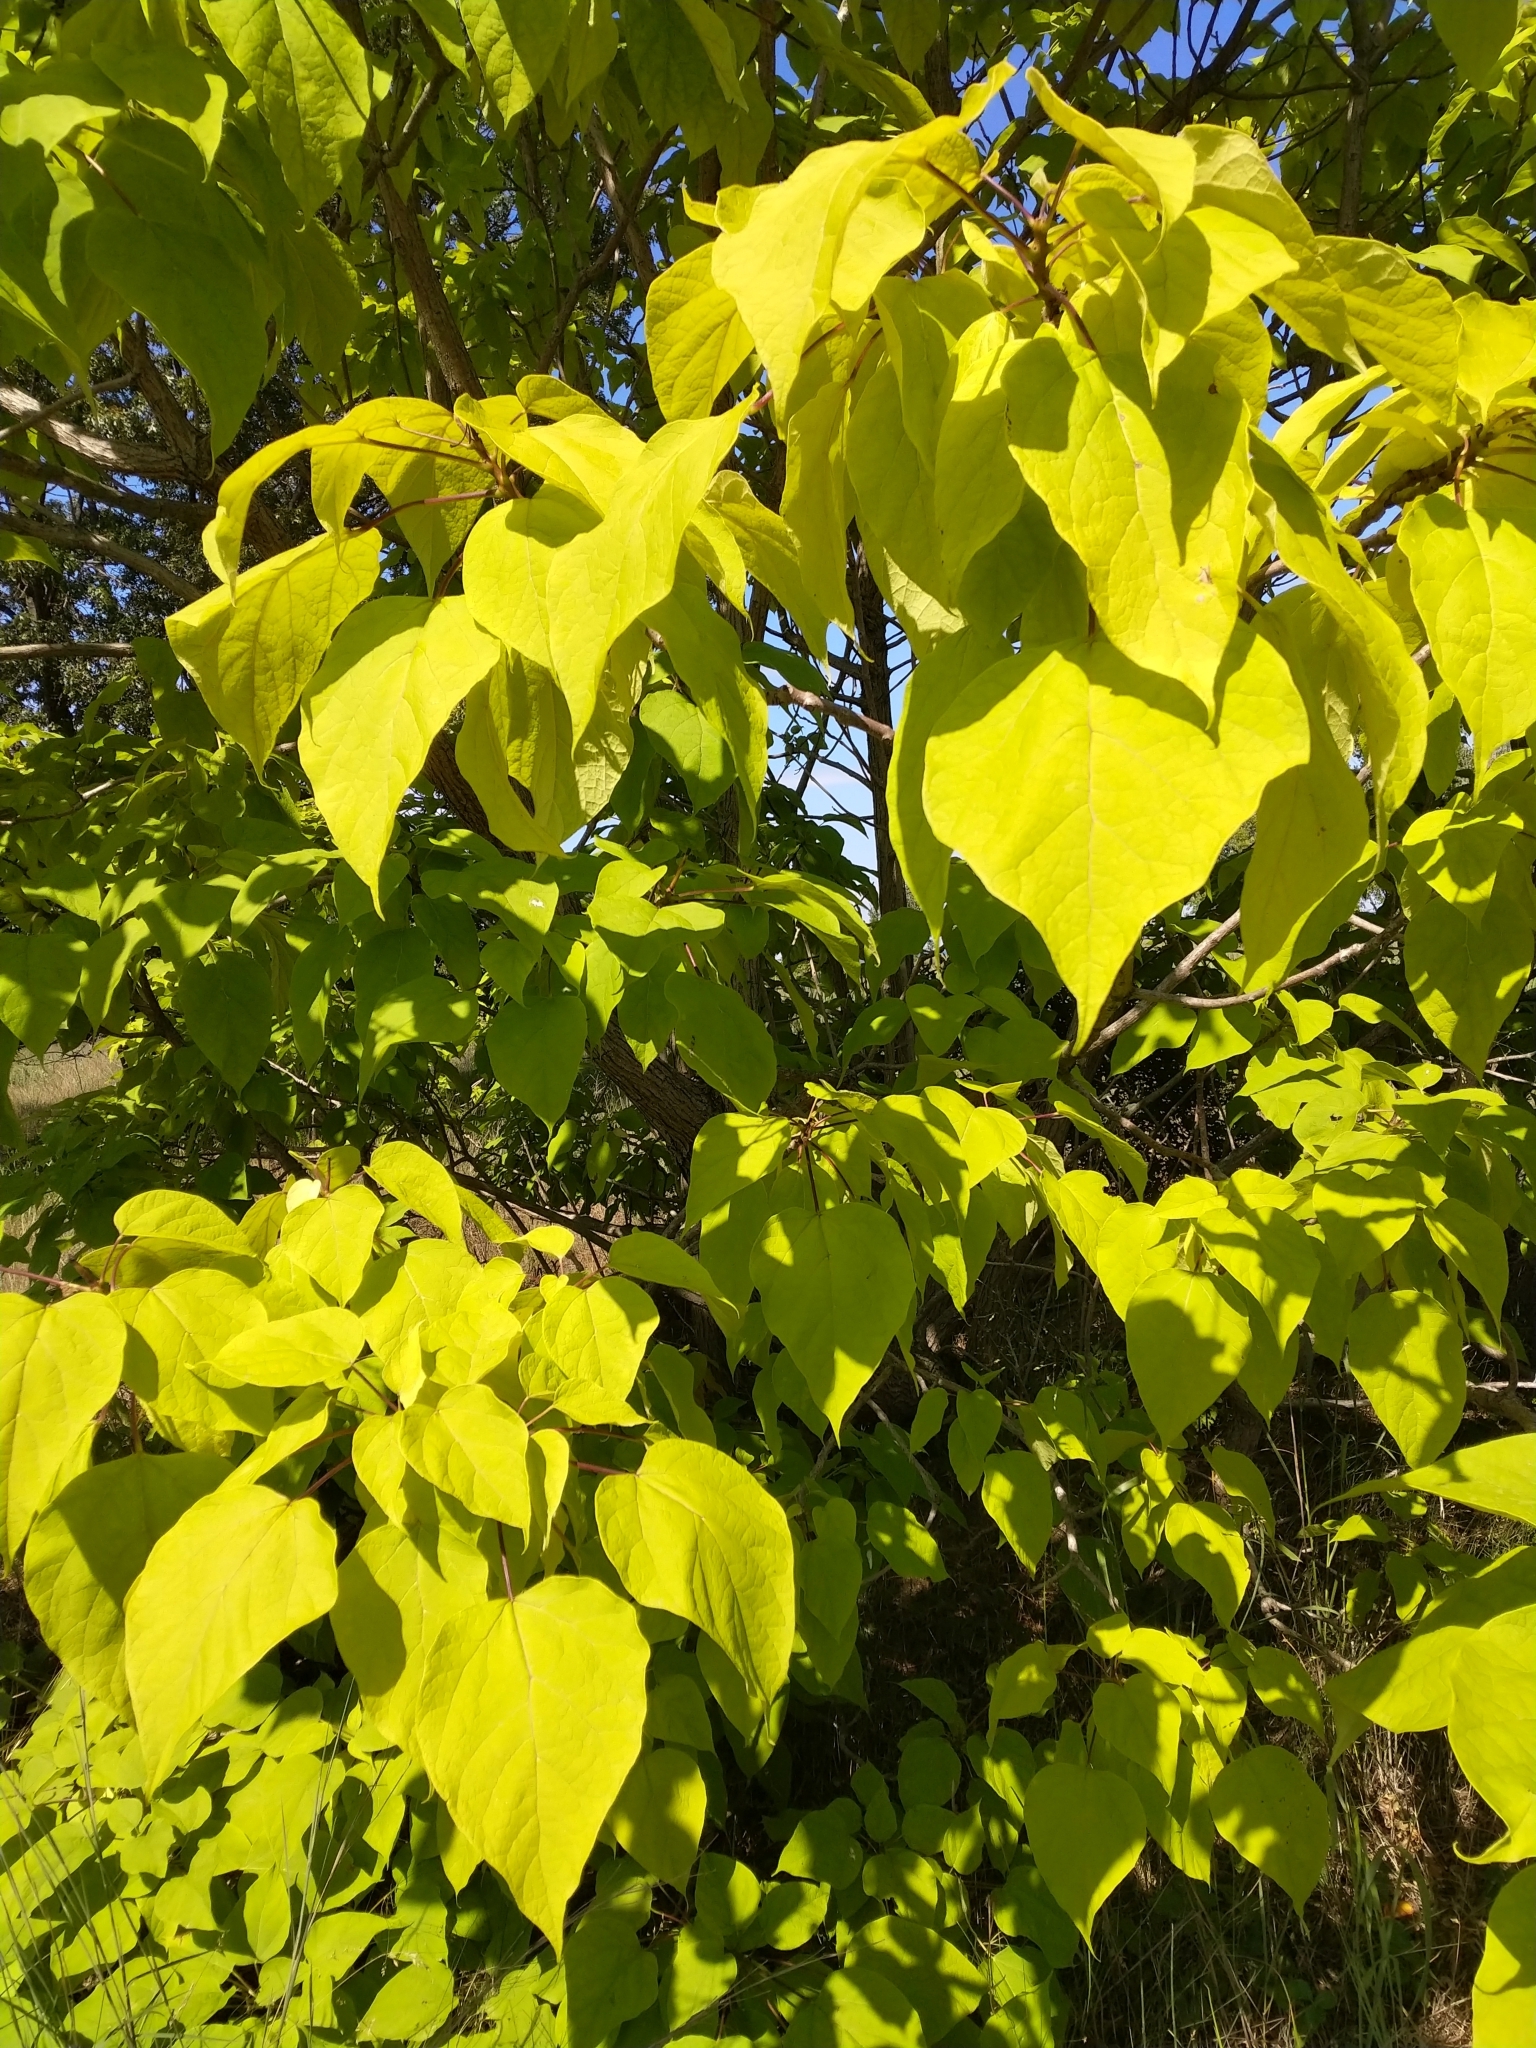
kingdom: Plantae
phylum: Tracheophyta
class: Magnoliopsida
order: Lamiales
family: Bignoniaceae
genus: Catalpa
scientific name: Catalpa speciosa
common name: Northern catalpa
